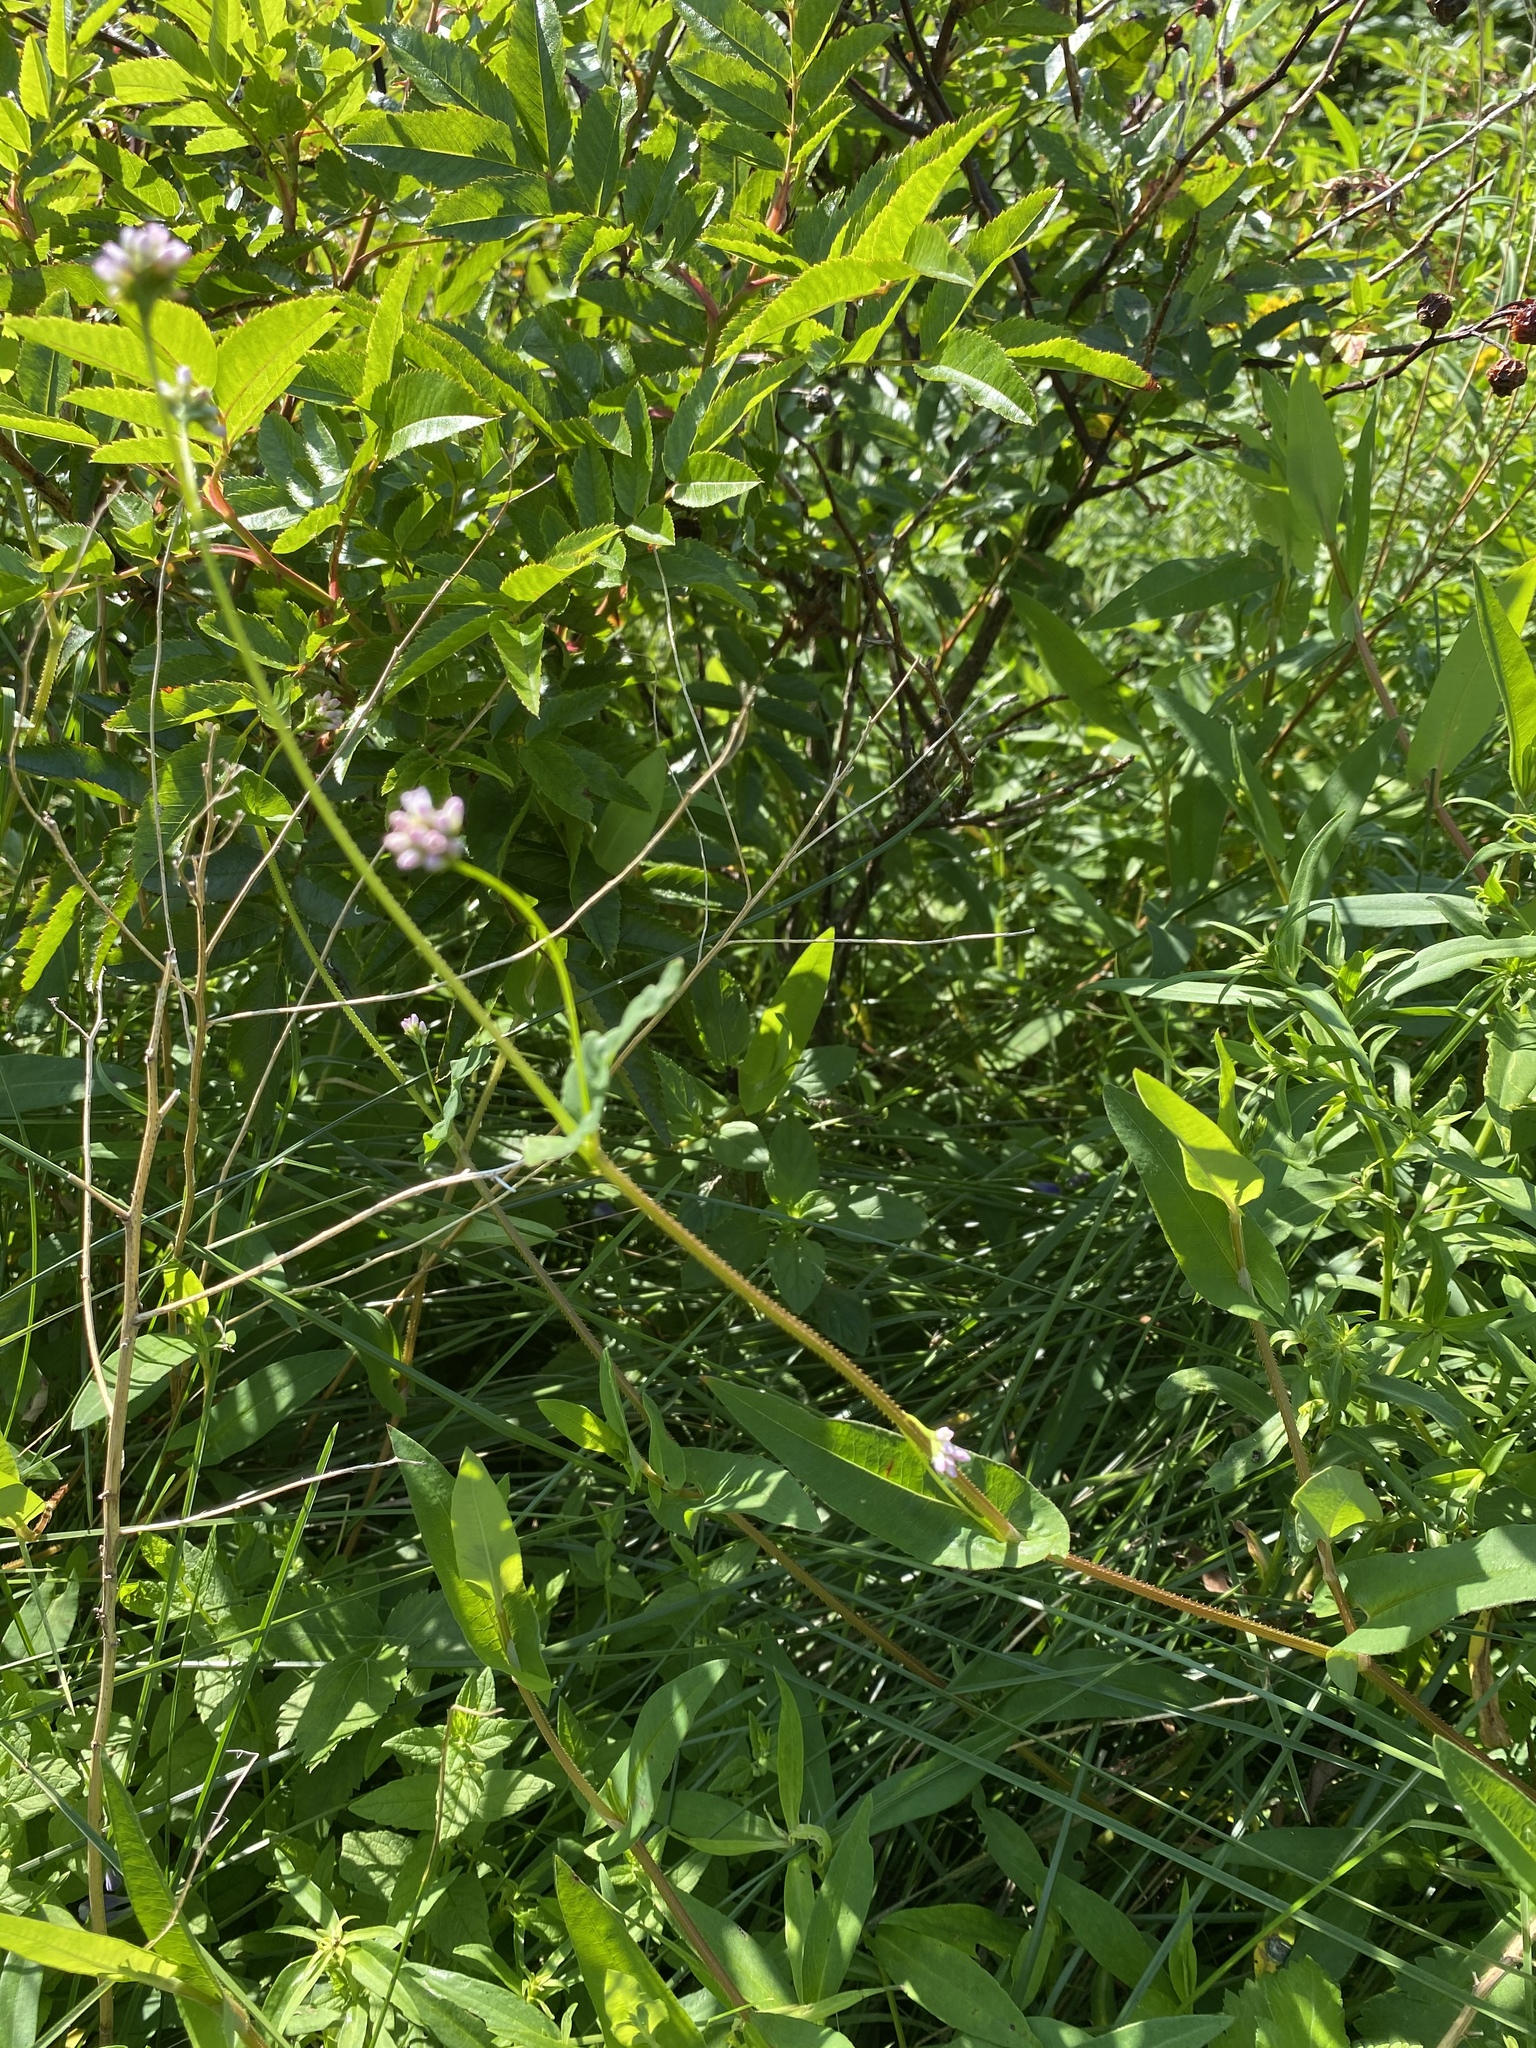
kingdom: Plantae
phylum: Tracheophyta
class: Magnoliopsida
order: Caryophyllales
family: Polygonaceae
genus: Persicaria
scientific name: Persicaria sagittata
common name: American tearthumb
